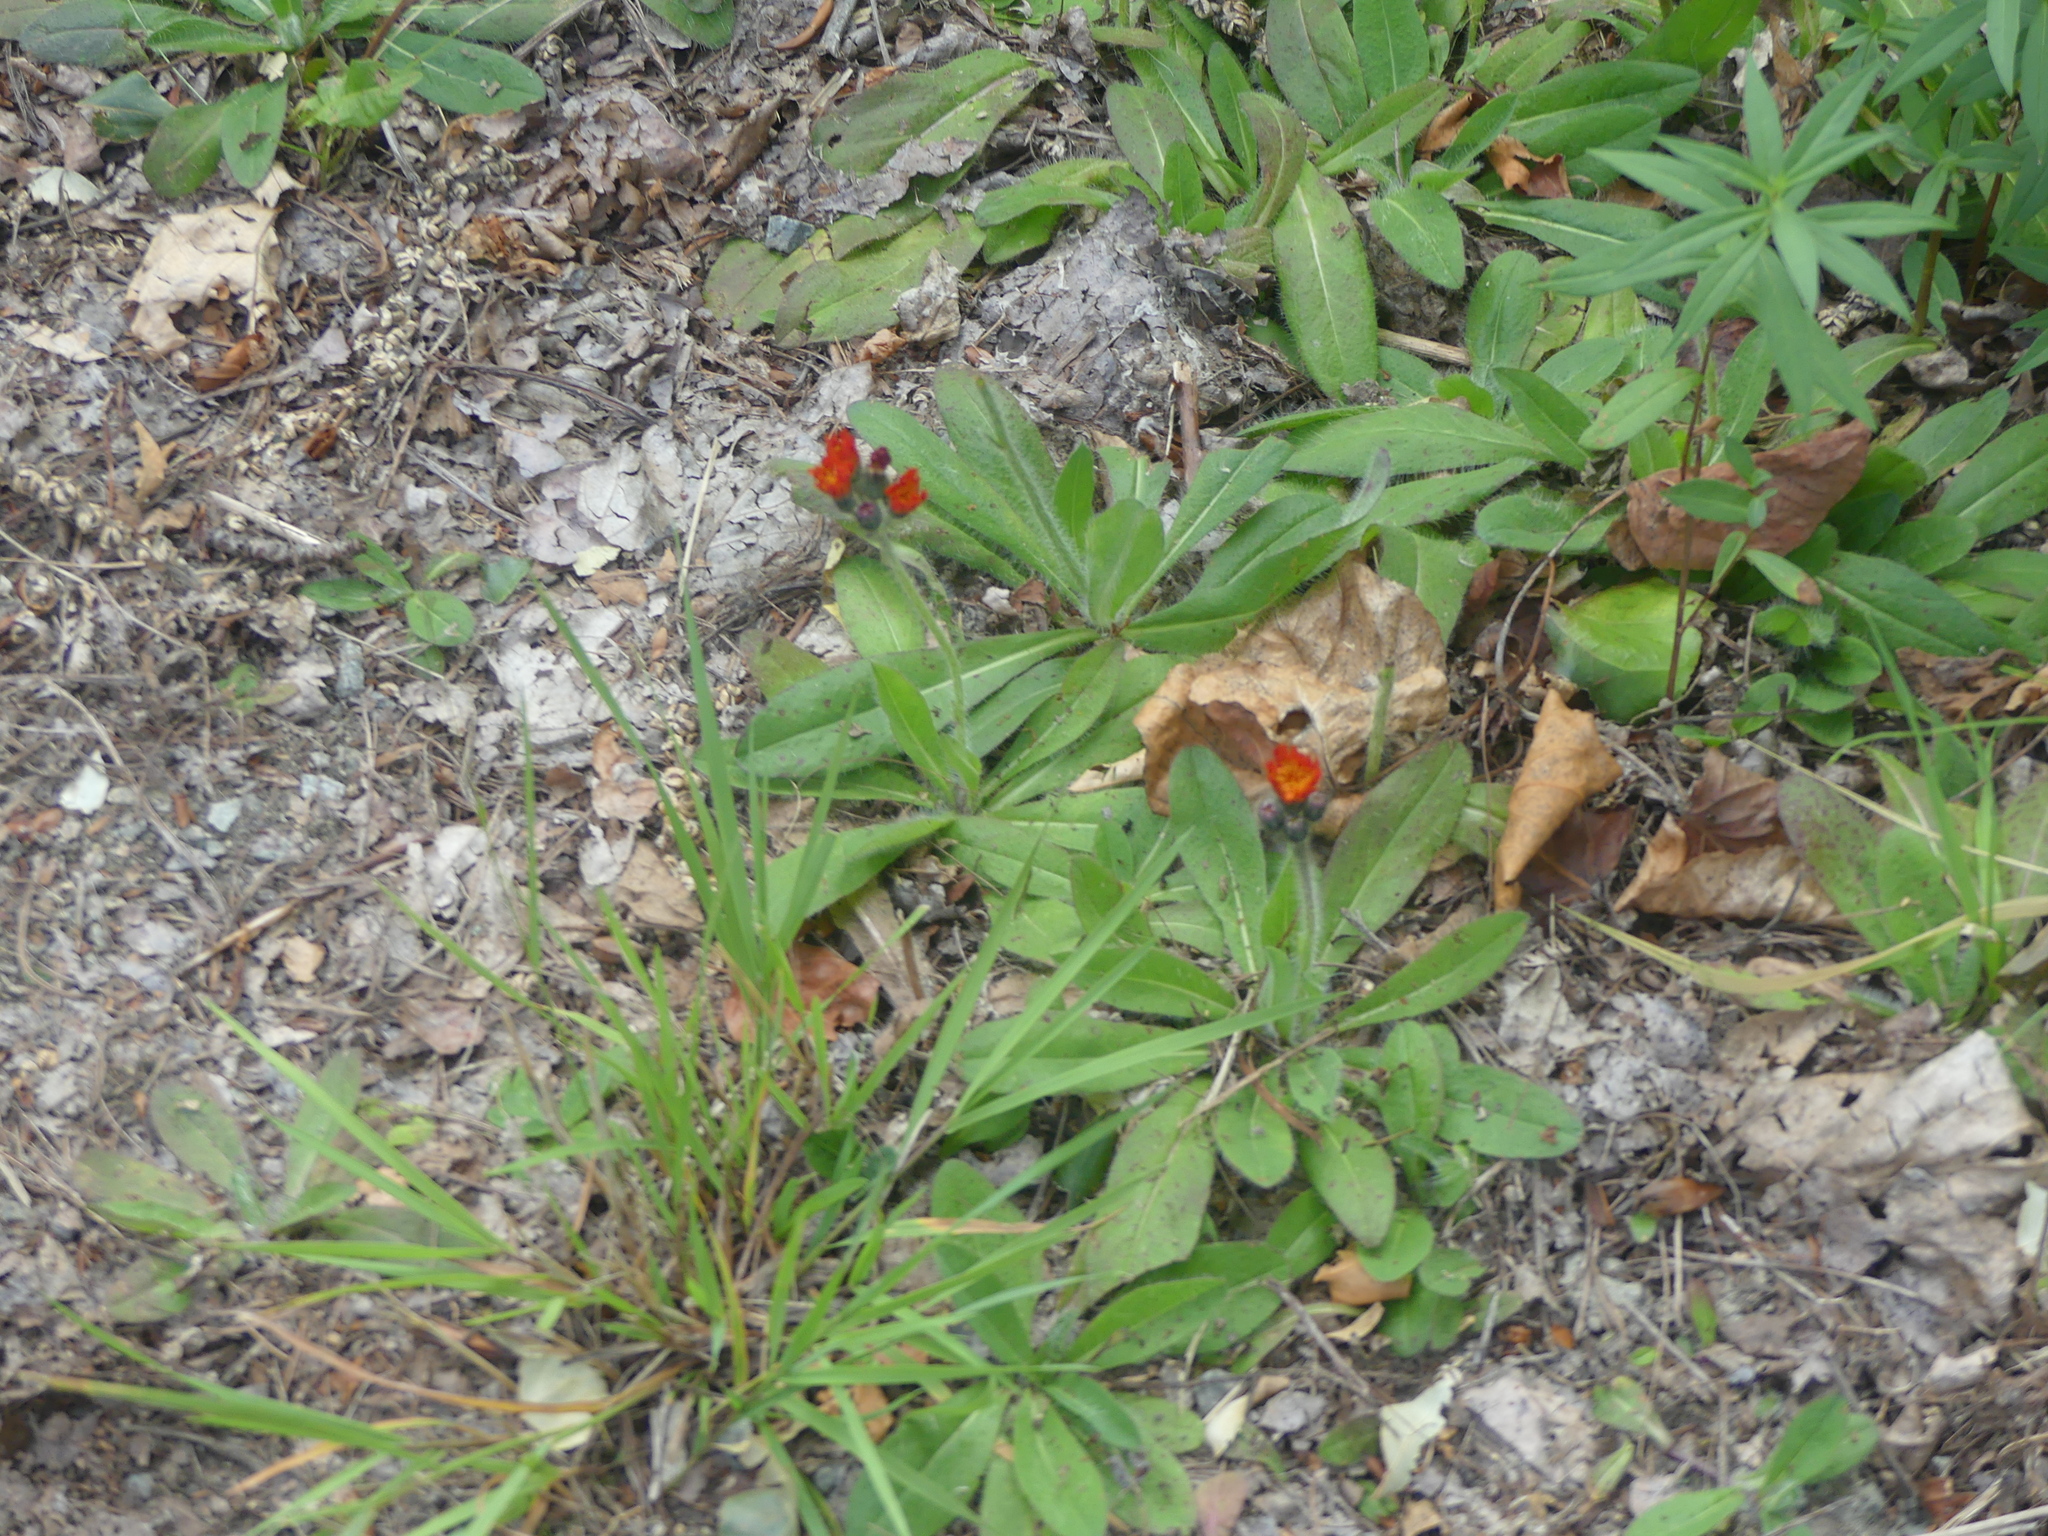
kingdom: Plantae
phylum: Tracheophyta
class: Magnoliopsida
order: Asterales
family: Asteraceae
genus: Pilosella
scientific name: Pilosella aurantiaca
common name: Fox-and-cubs
